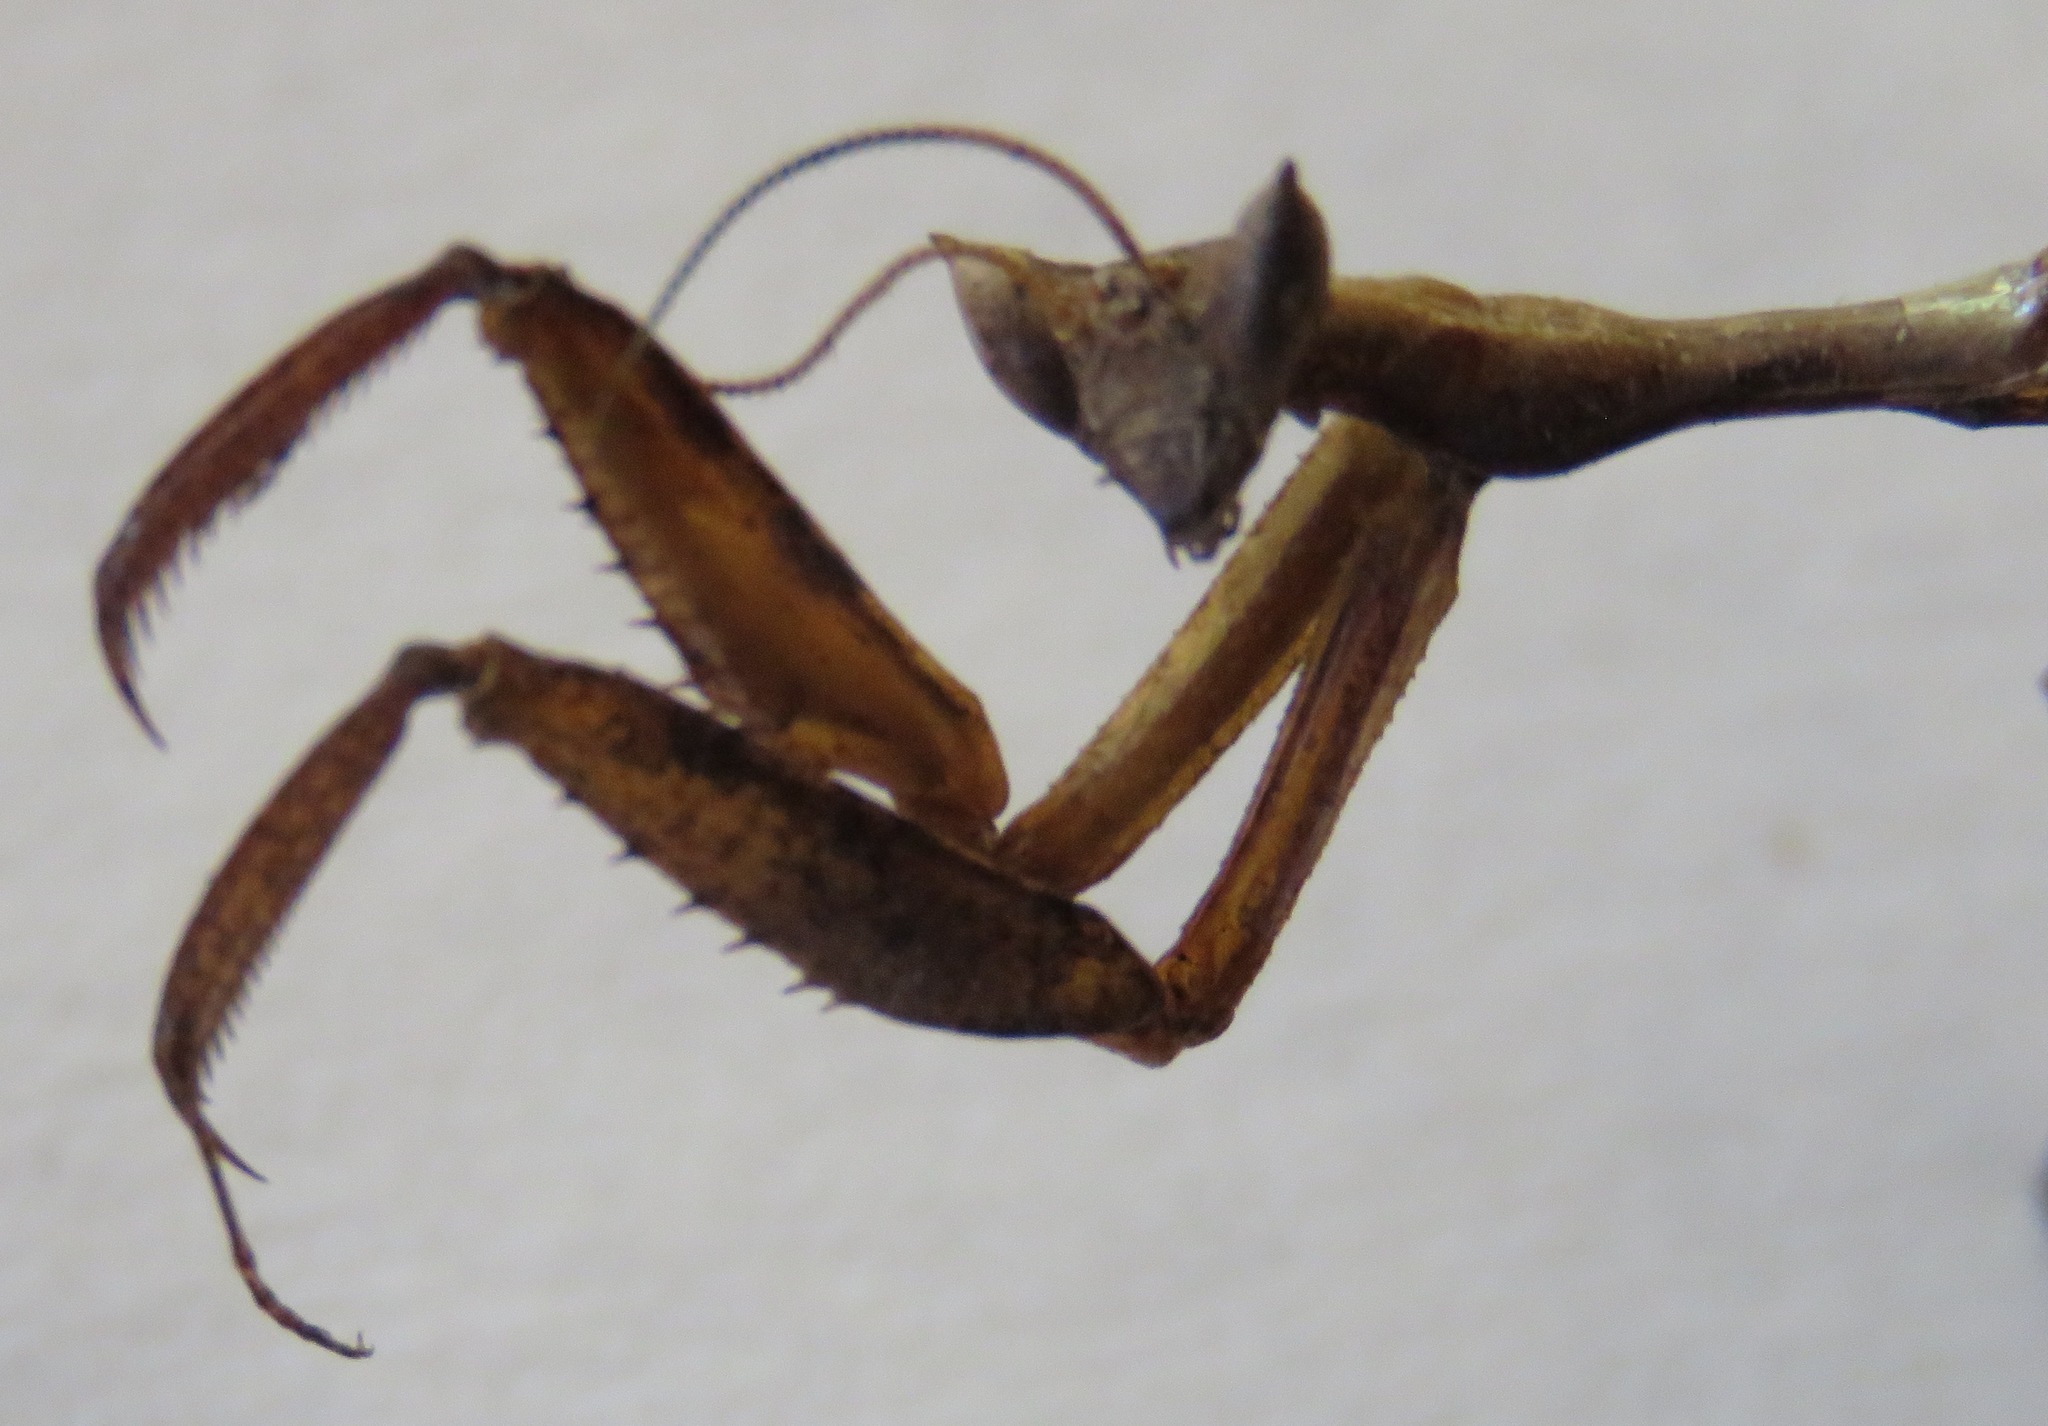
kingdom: Animalia
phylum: Arthropoda
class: Insecta
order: Mantodea
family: Acanthopidae
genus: Acanthops
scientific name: Acanthops godmani
